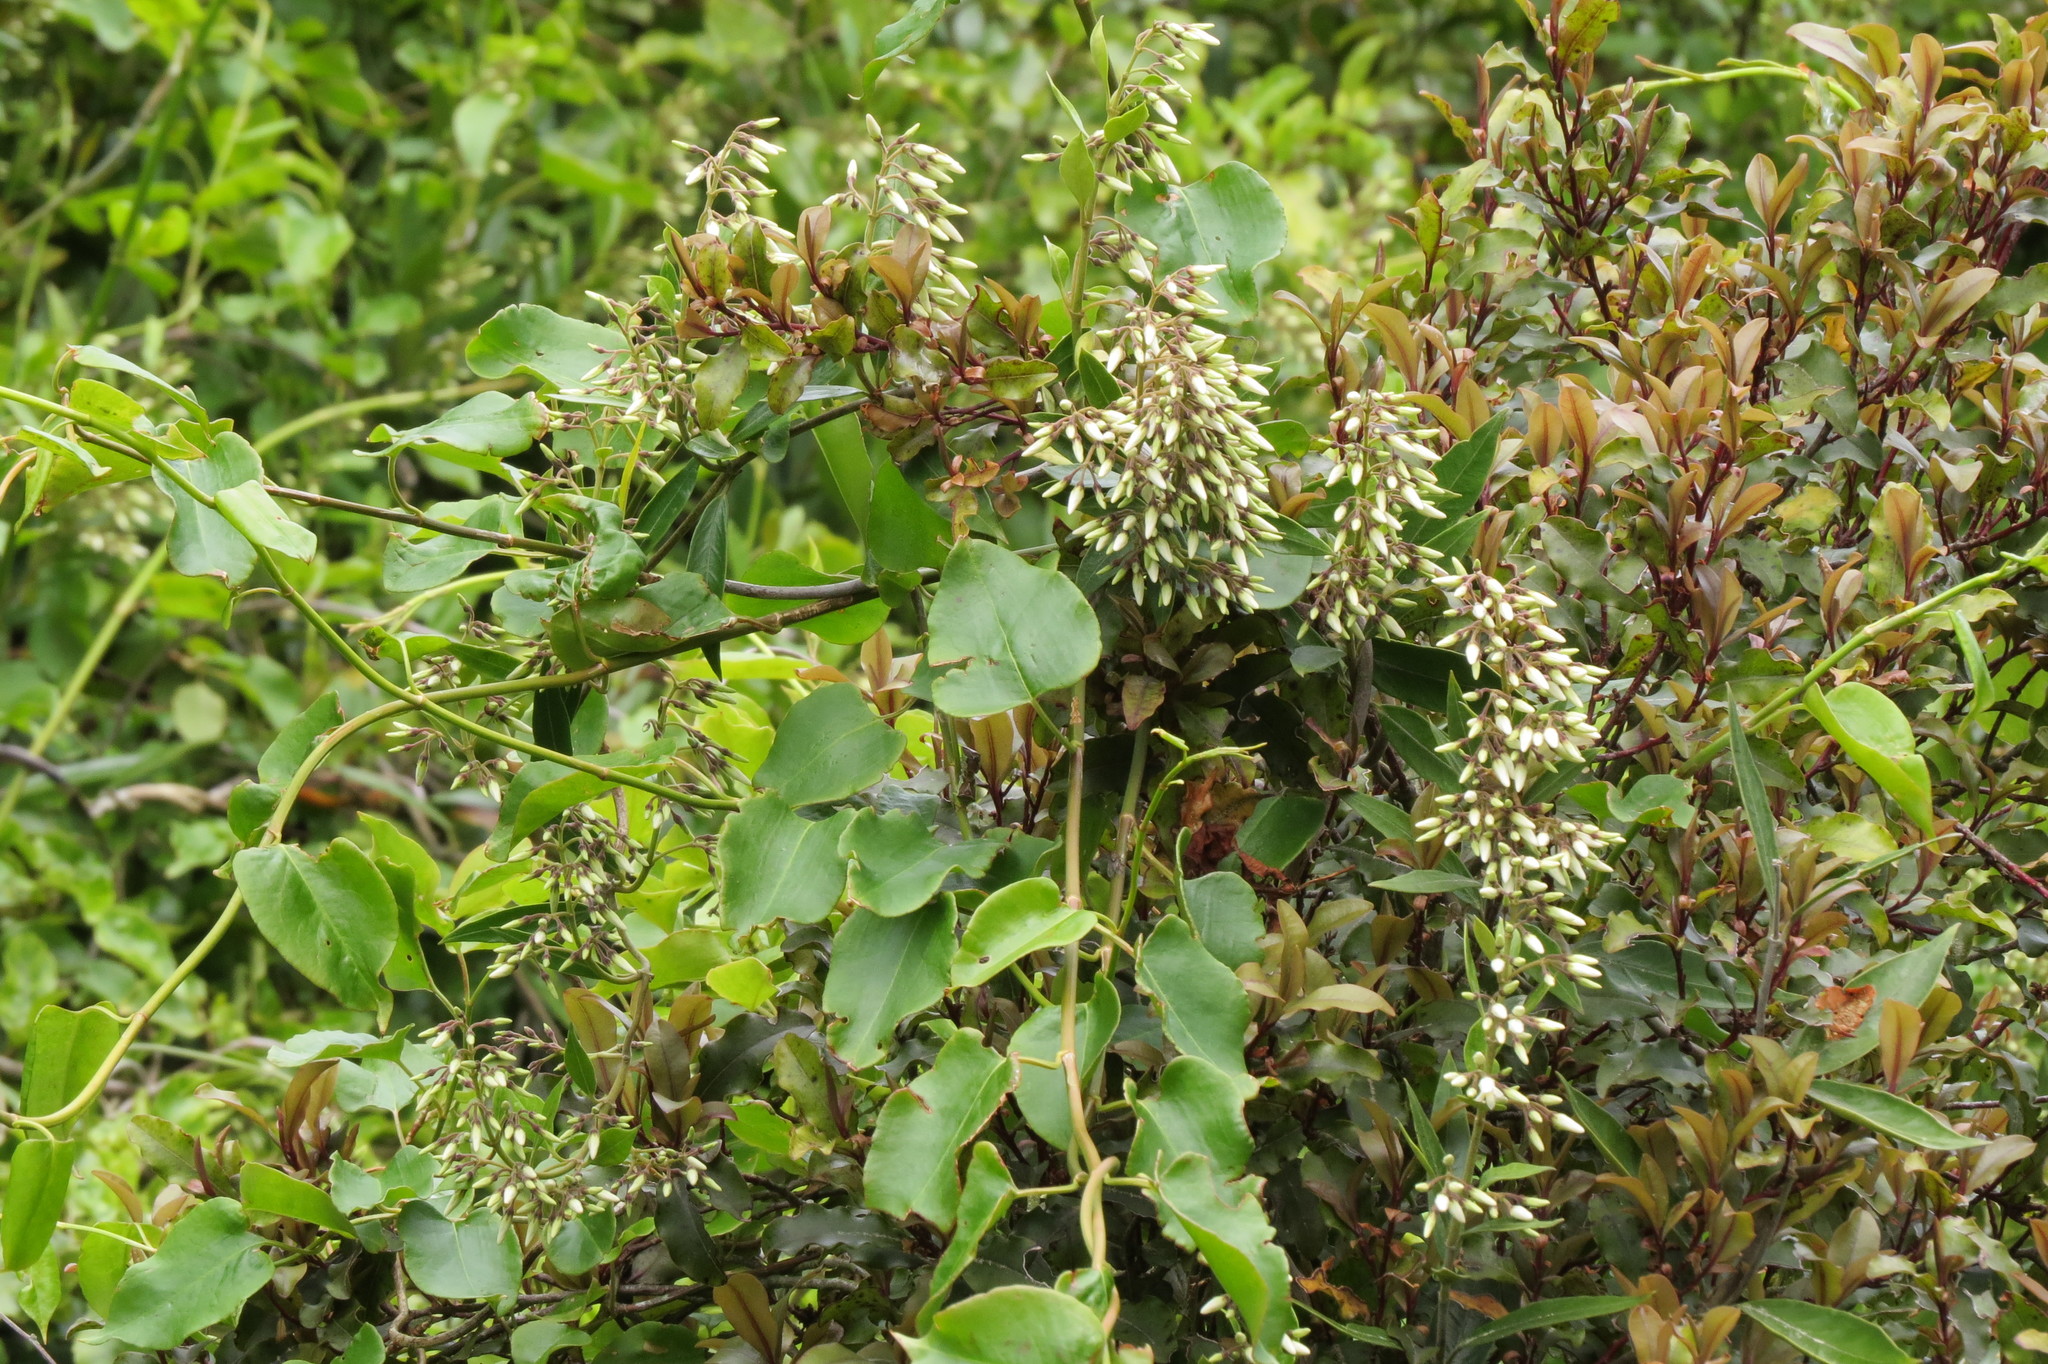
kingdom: Plantae
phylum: Tracheophyta
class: Magnoliopsida
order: Gentianales
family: Apocynaceae
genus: Parsonsia
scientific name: Parsonsia heterophylla
